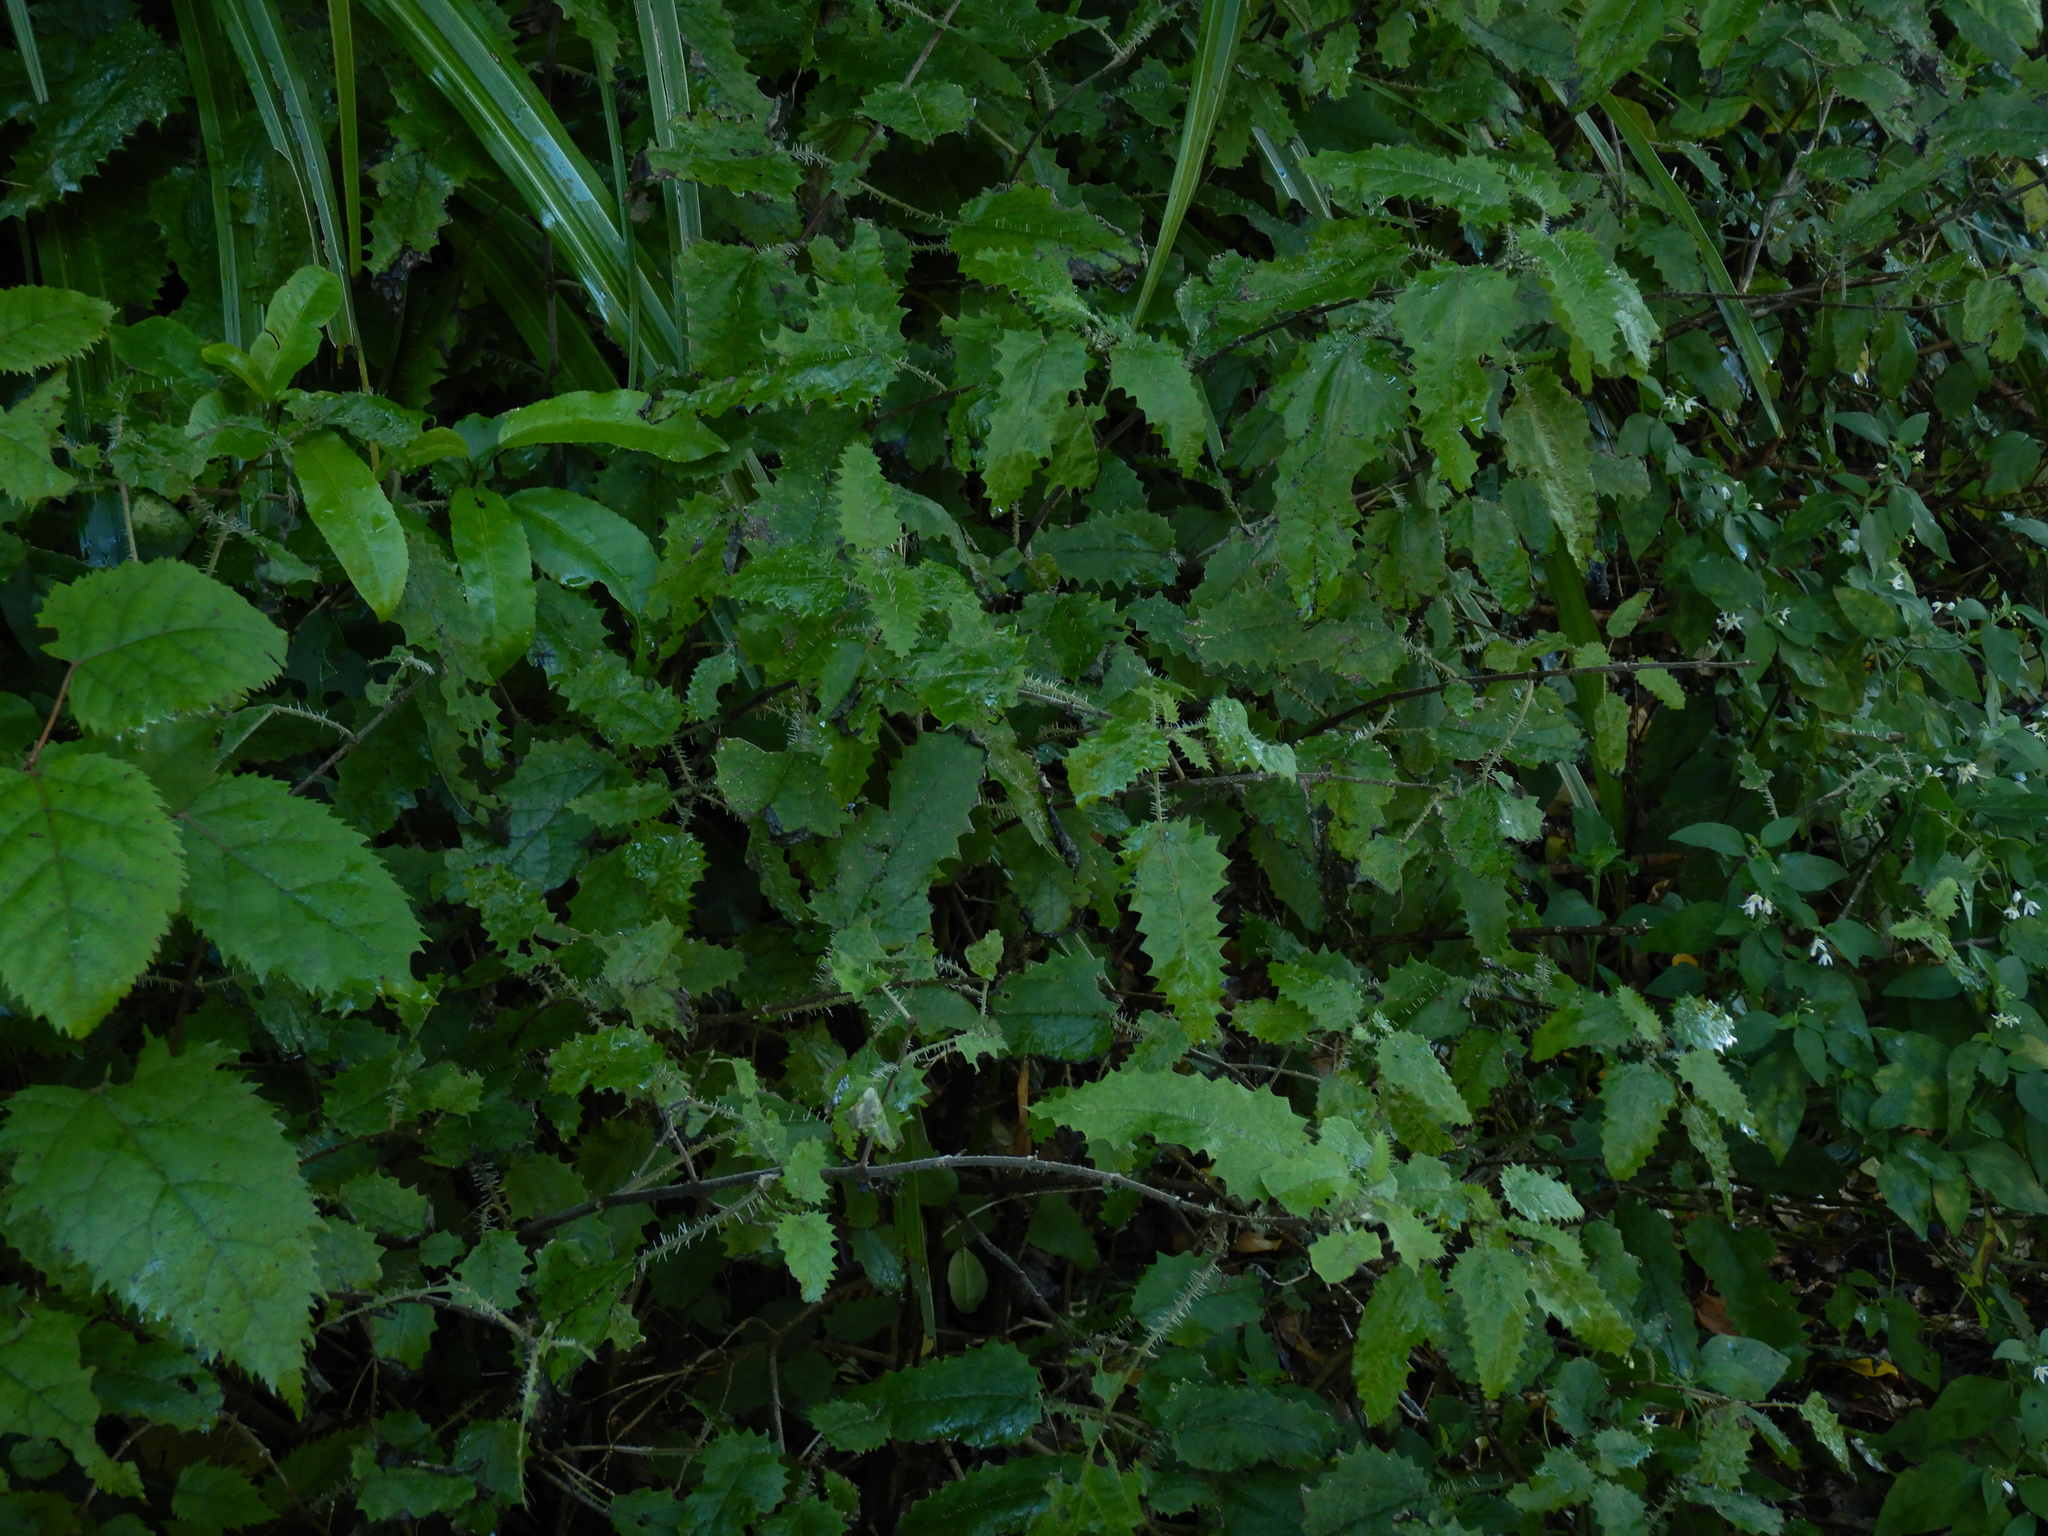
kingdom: Plantae
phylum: Tracheophyta
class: Magnoliopsida
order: Rosales
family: Urticaceae
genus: Urtica
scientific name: Urtica ferox
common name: Tree nettle
